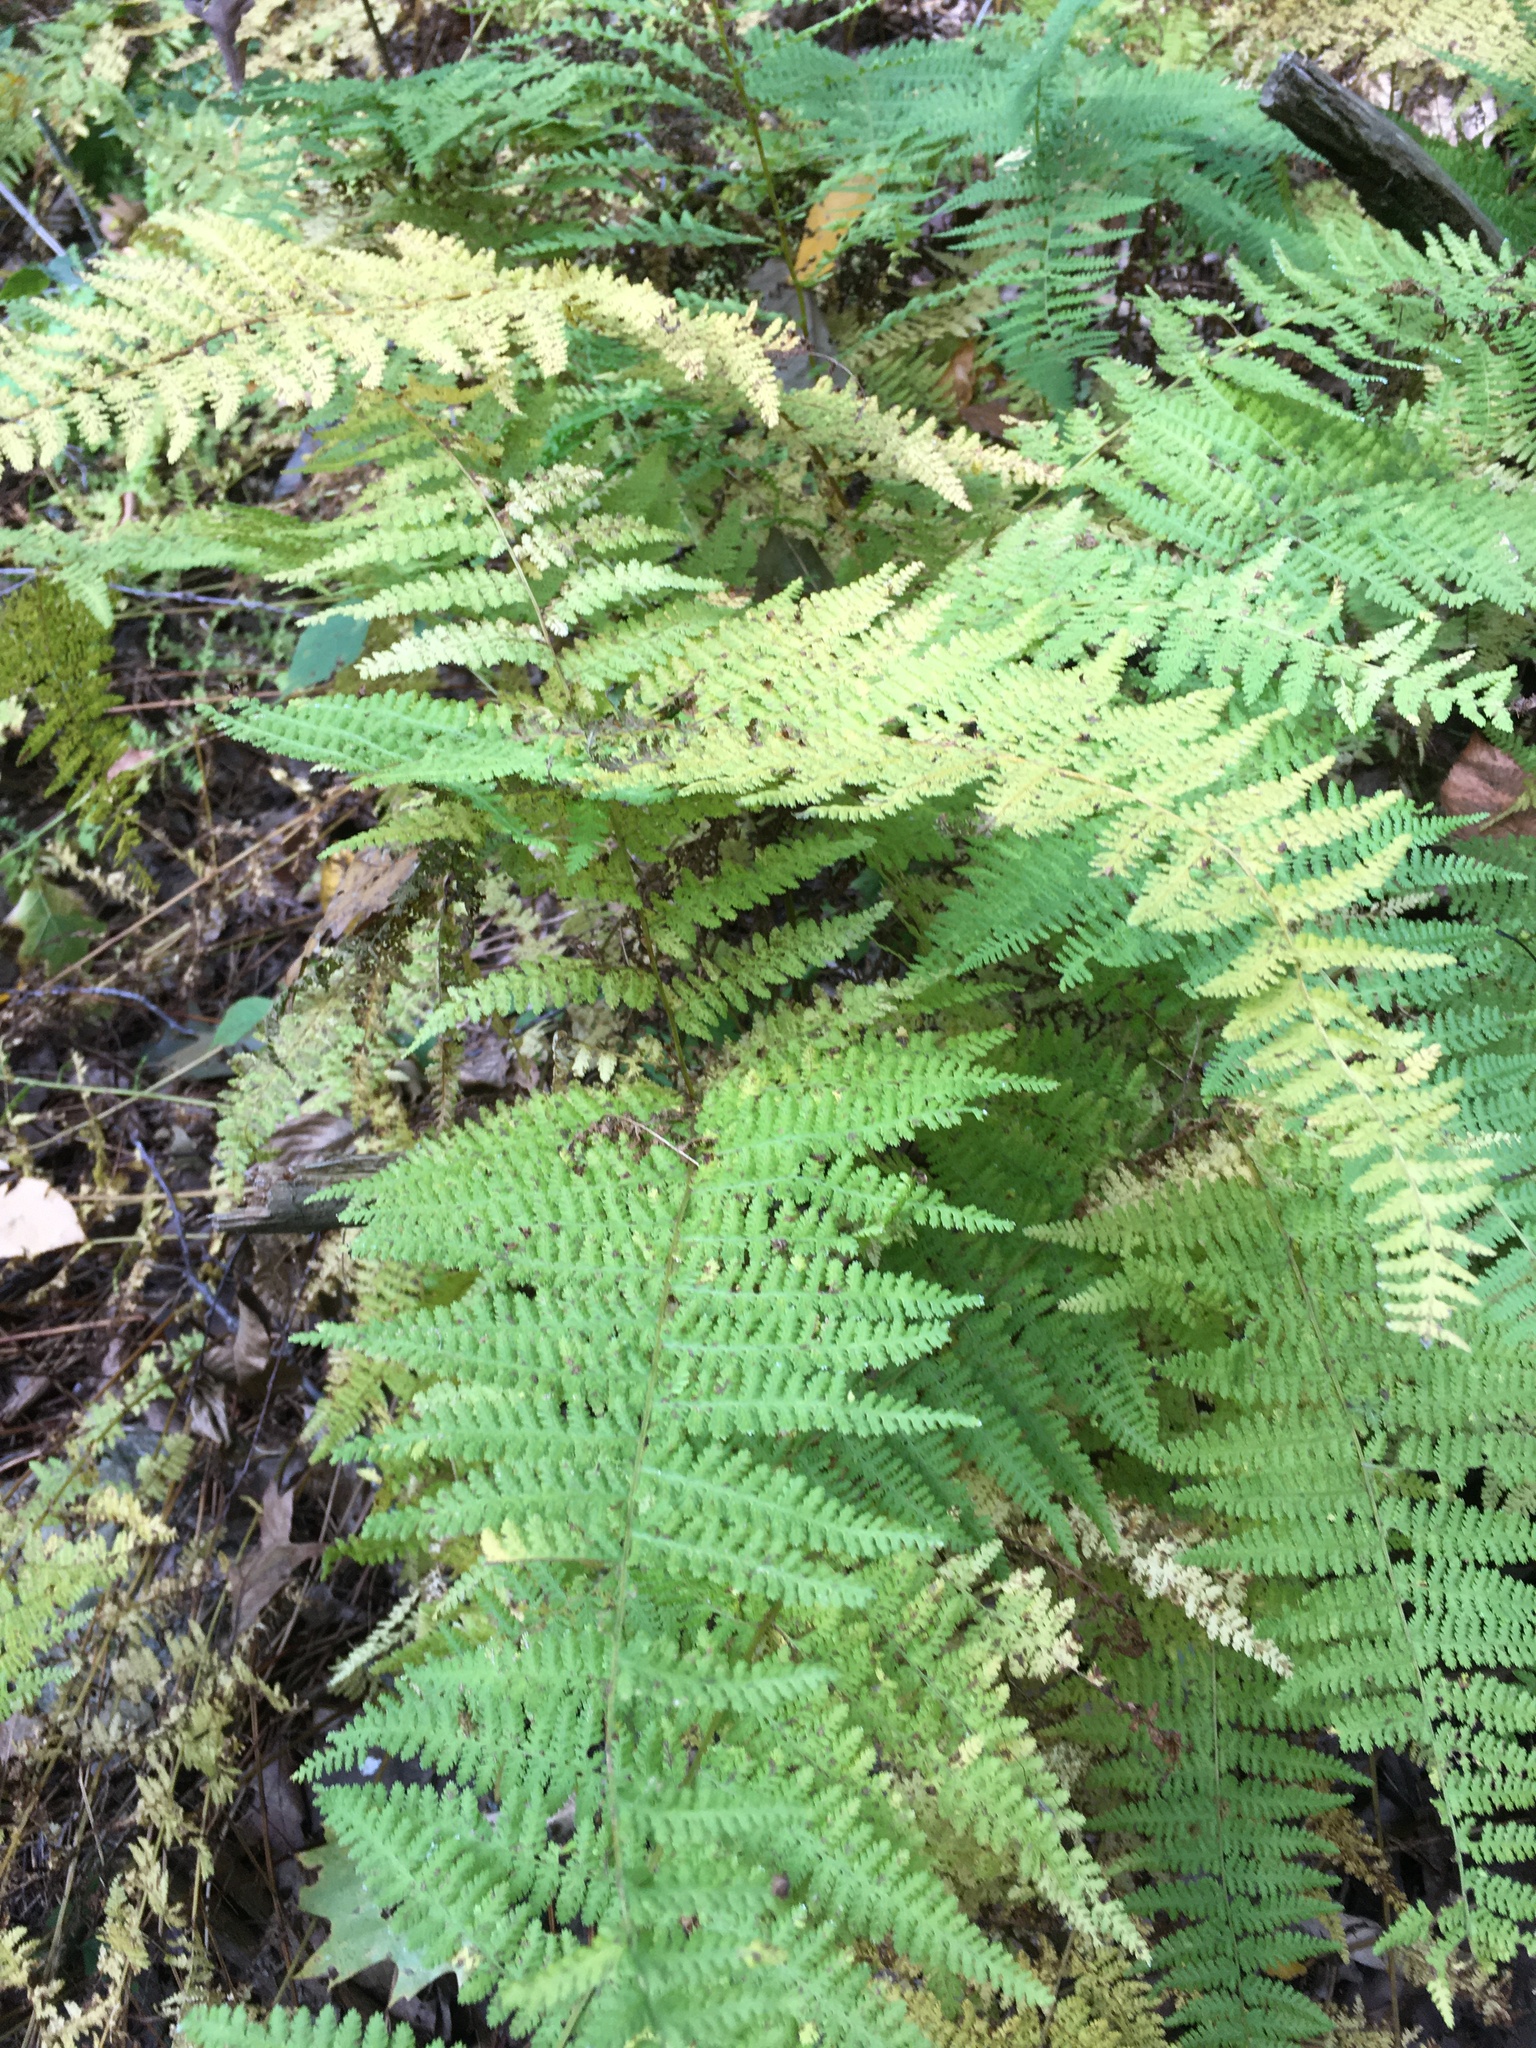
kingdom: Plantae
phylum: Tracheophyta
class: Polypodiopsida
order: Polypodiales
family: Dennstaedtiaceae
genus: Sitobolium
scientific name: Sitobolium punctilobum
